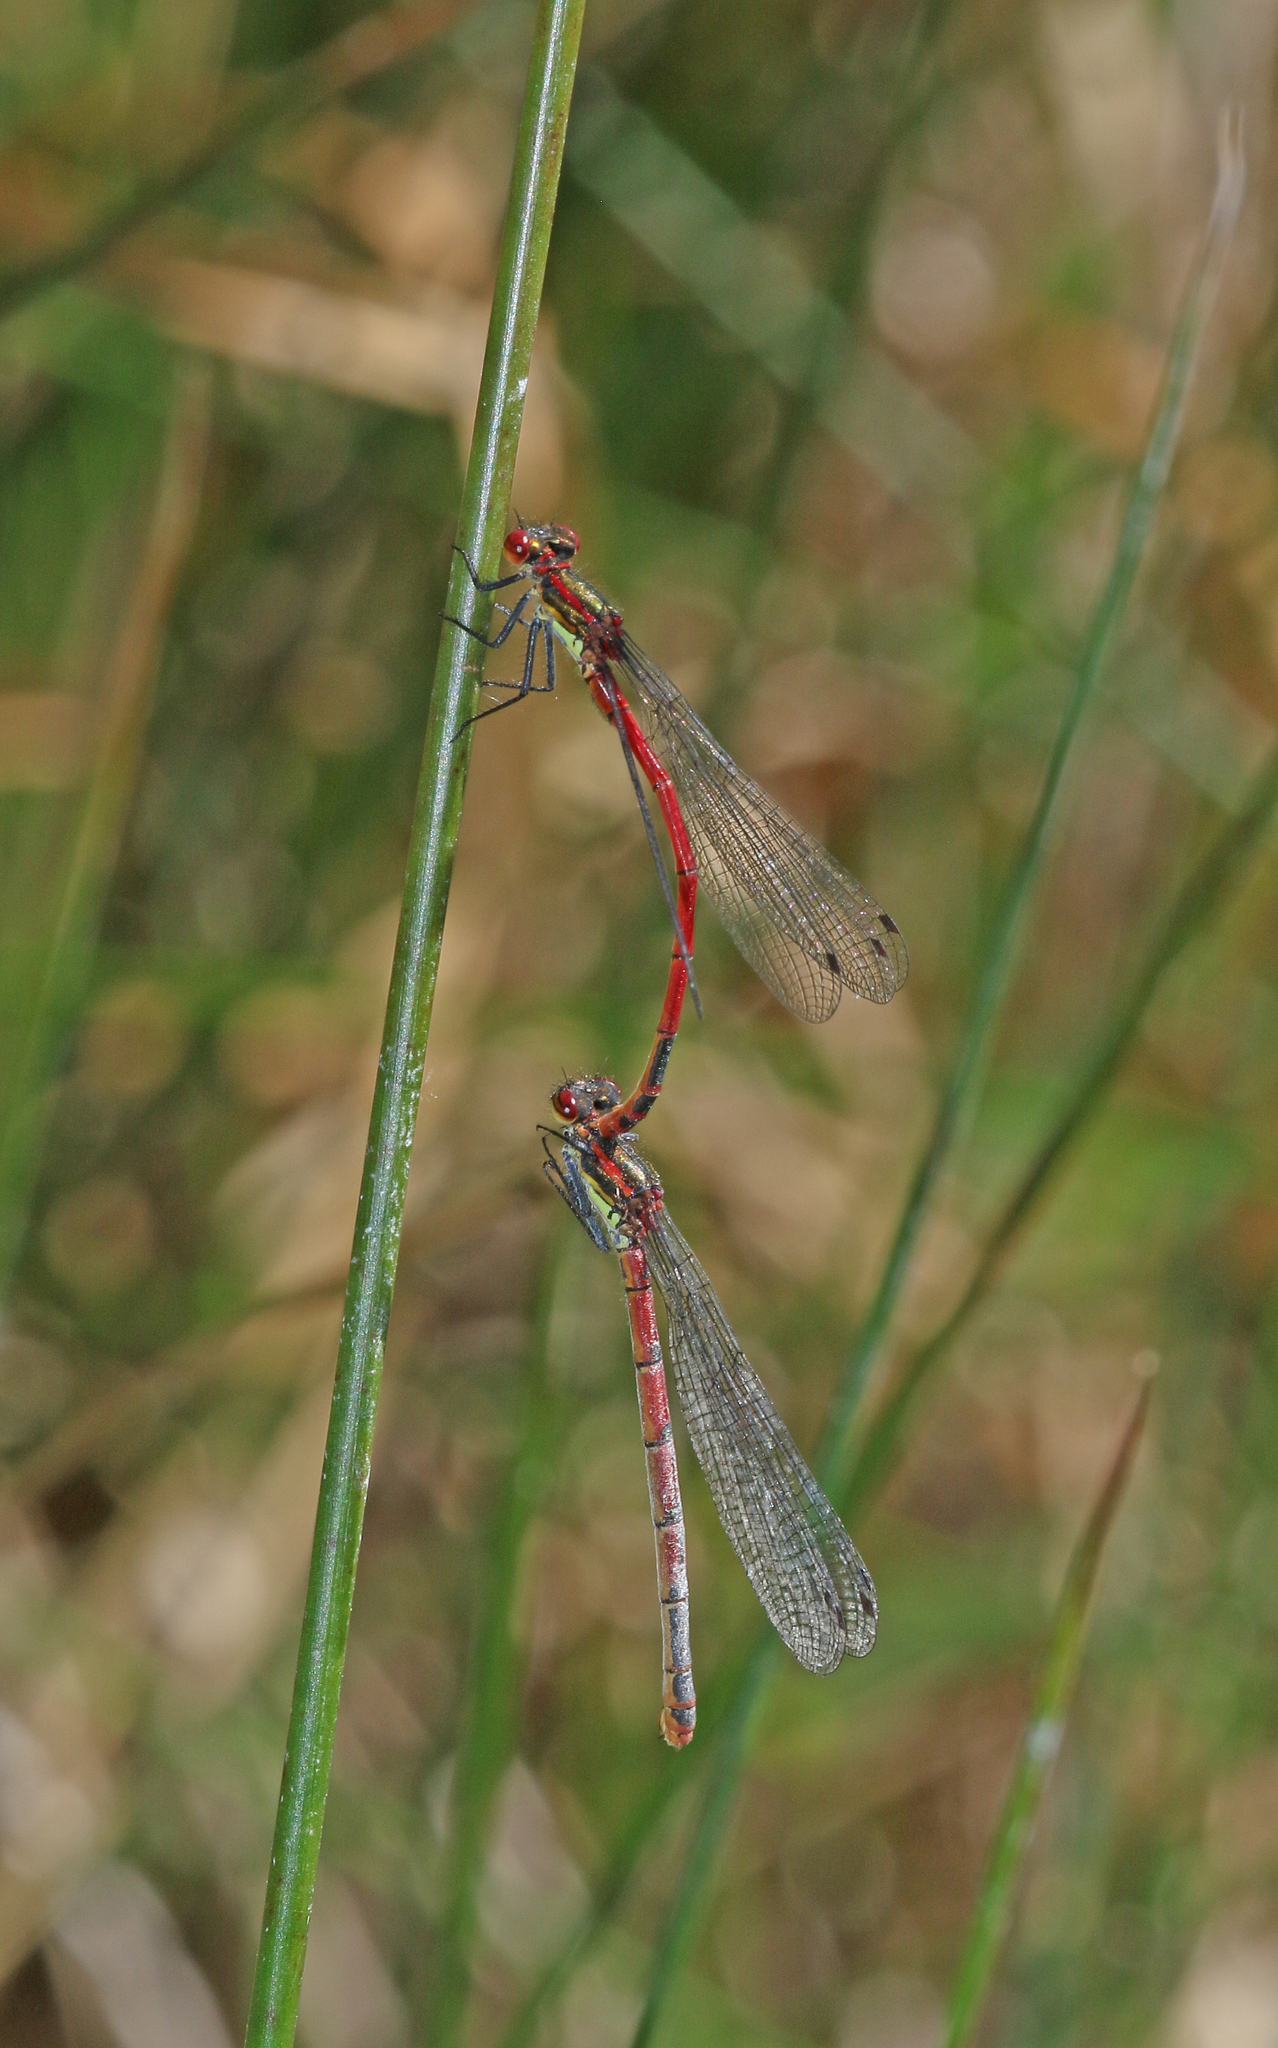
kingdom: Animalia
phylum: Arthropoda
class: Insecta
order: Odonata
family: Coenagrionidae
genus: Pyrrhosoma
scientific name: Pyrrhosoma nymphula
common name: Large red damsel
